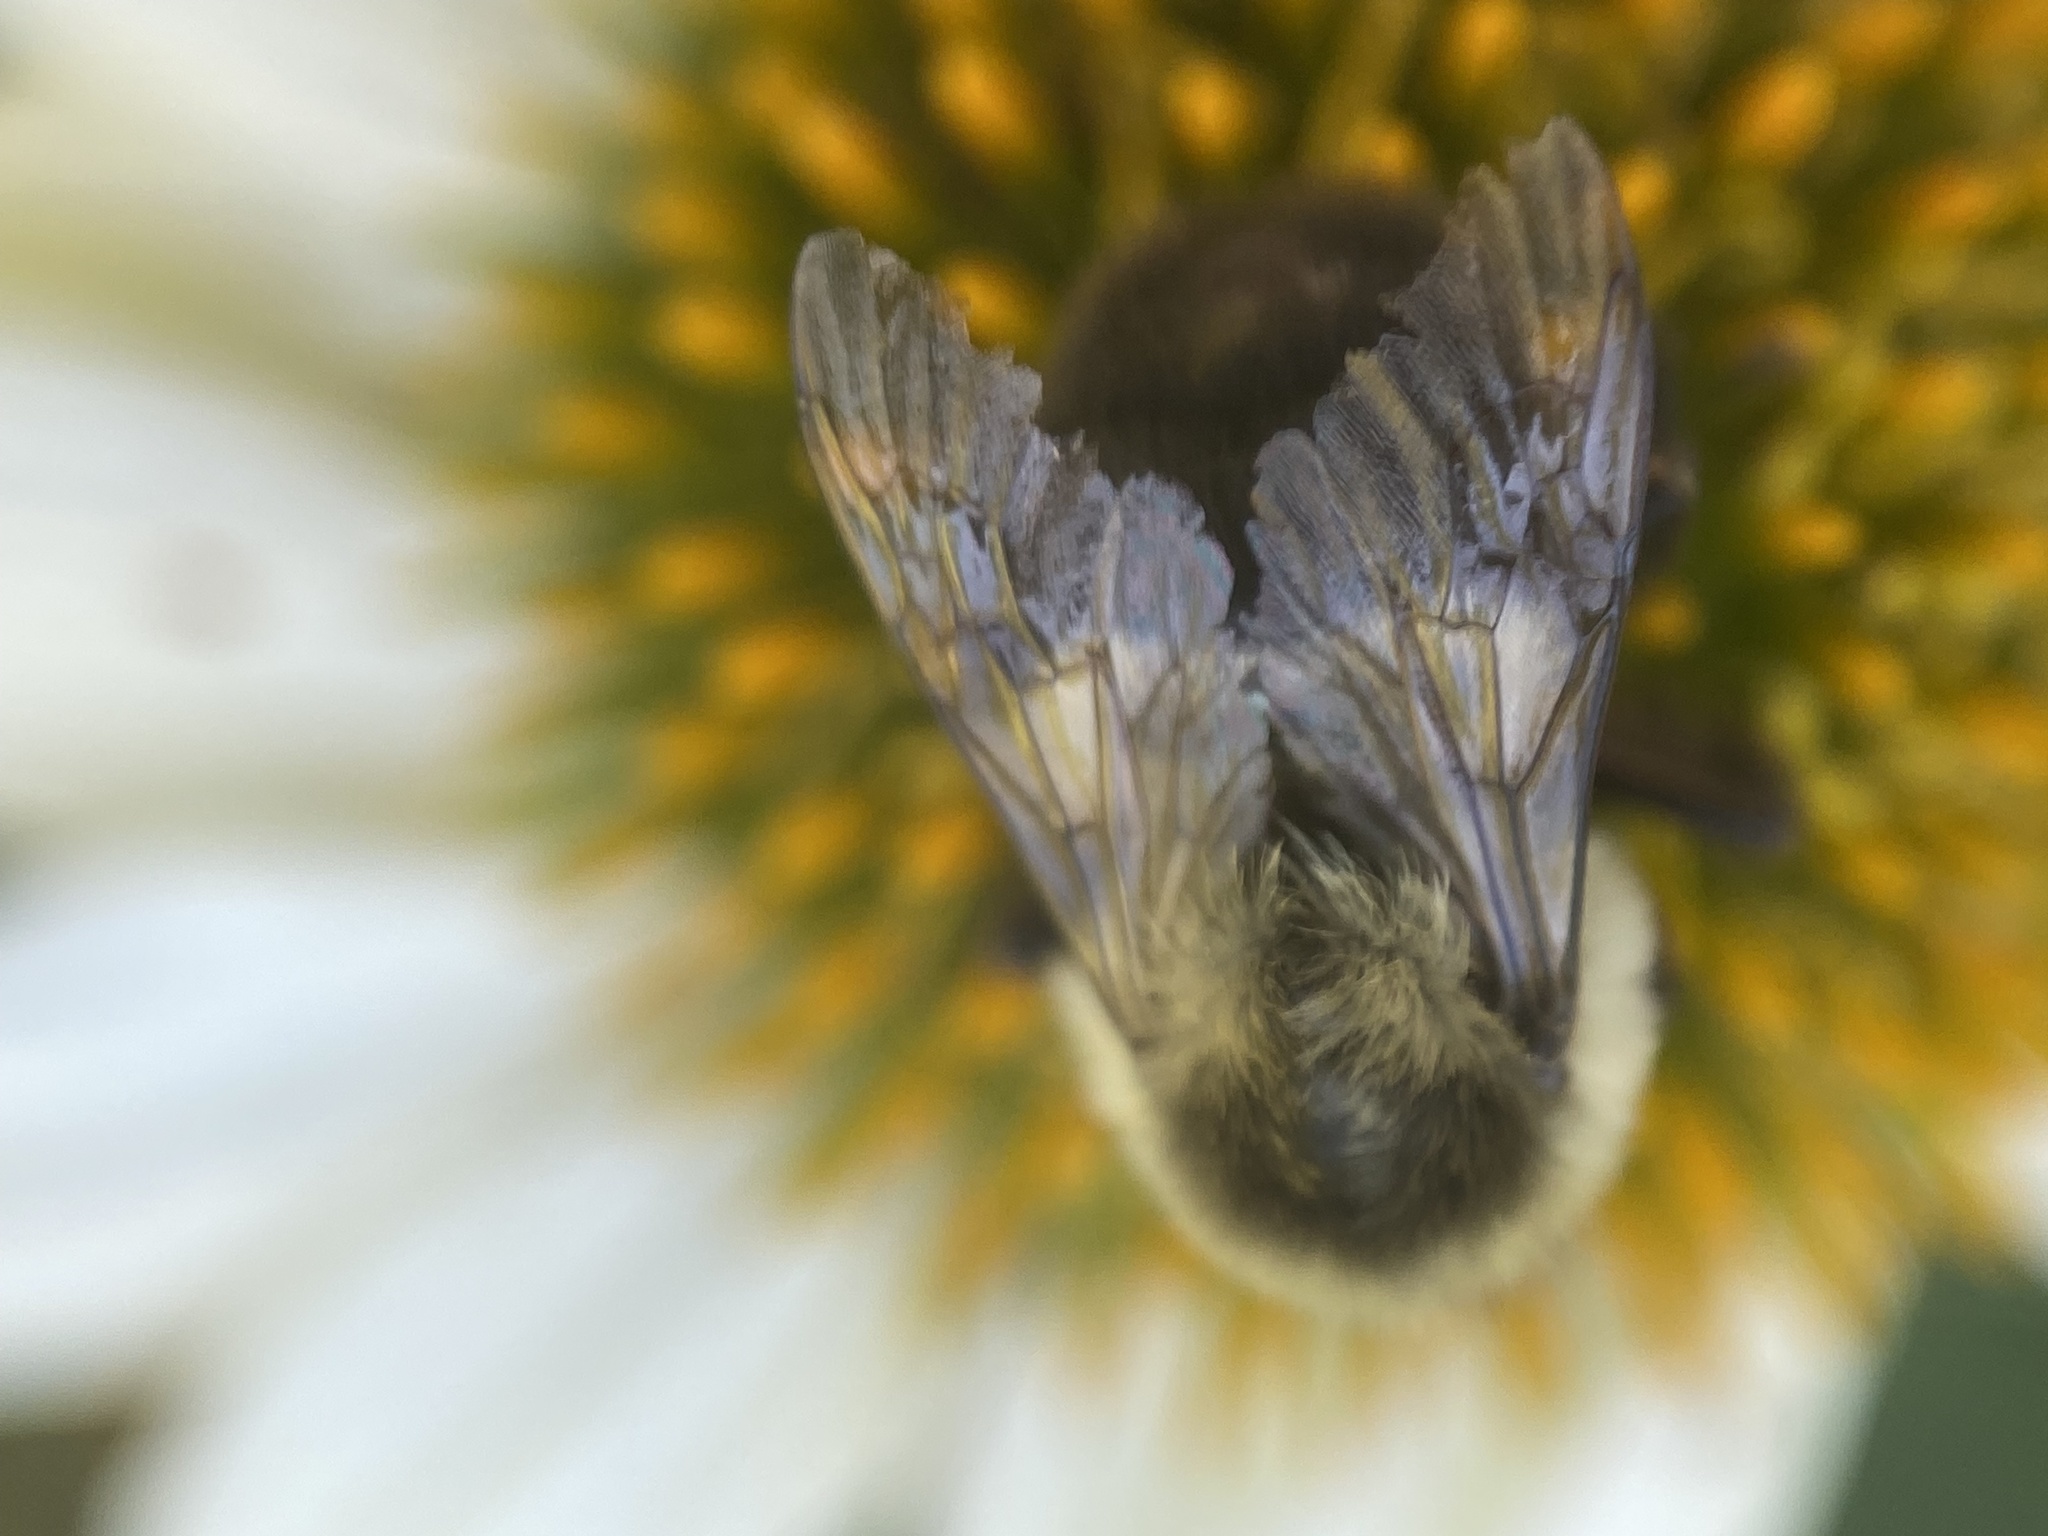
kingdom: Animalia
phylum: Arthropoda
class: Insecta
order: Hymenoptera
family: Apidae
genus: Bombus
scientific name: Bombus impatiens
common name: Common eastern bumble bee
